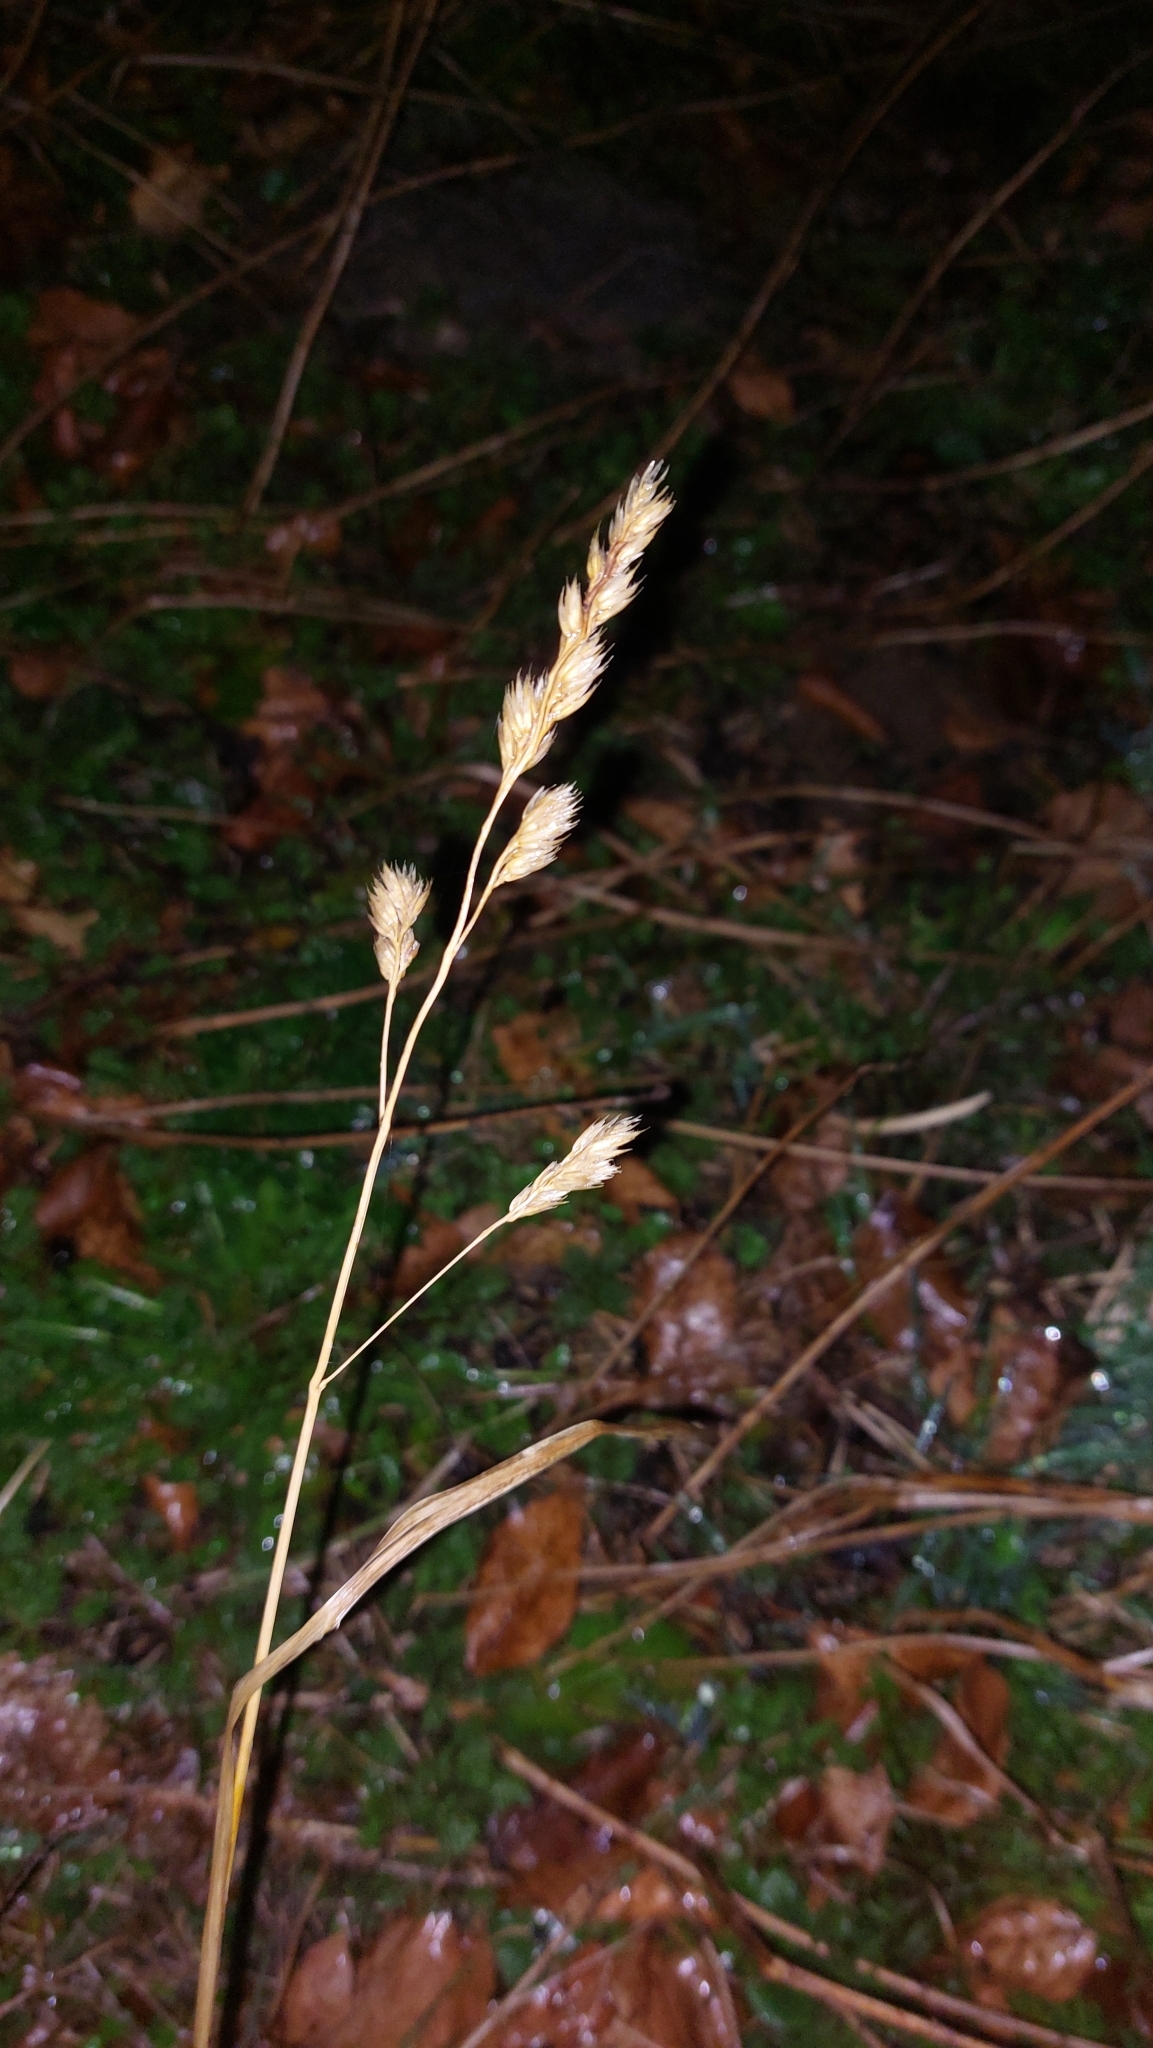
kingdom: Plantae
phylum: Tracheophyta
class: Liliopsida
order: Poales
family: Poaceae
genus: Dactylis
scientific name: Dactylis glomerata
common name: Orchardgrass
